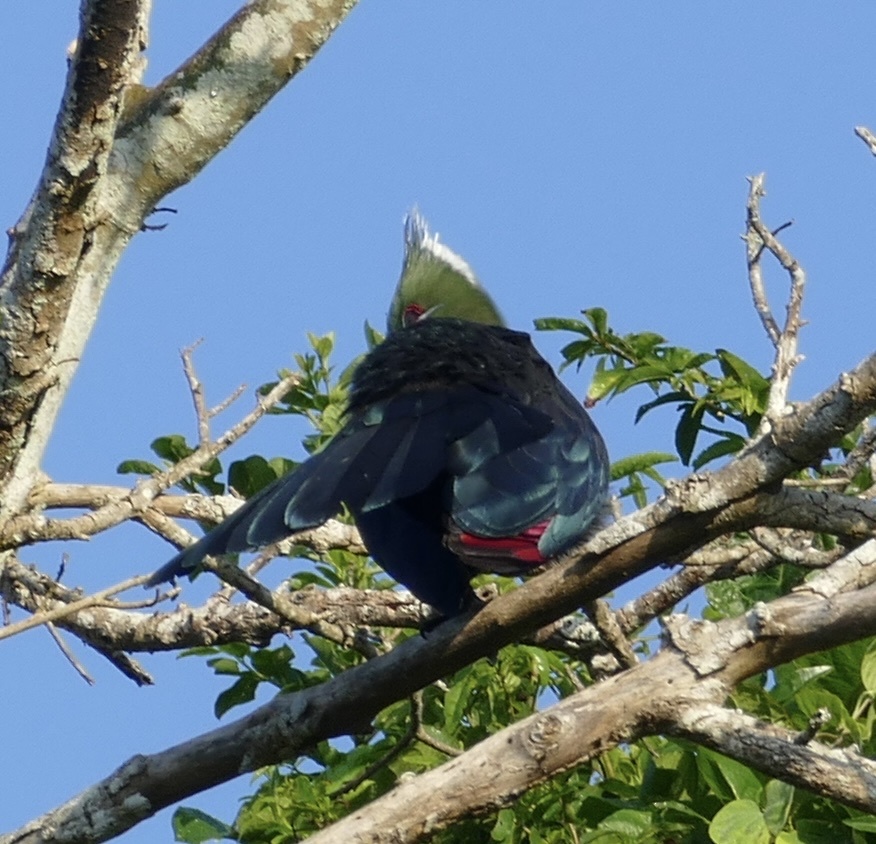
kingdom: Animalia
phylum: Chordata
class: Aves
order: Musophagiformes
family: Musophagidae
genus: Tauraco
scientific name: Tauraco livingstonii
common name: Livingstone's turaco
